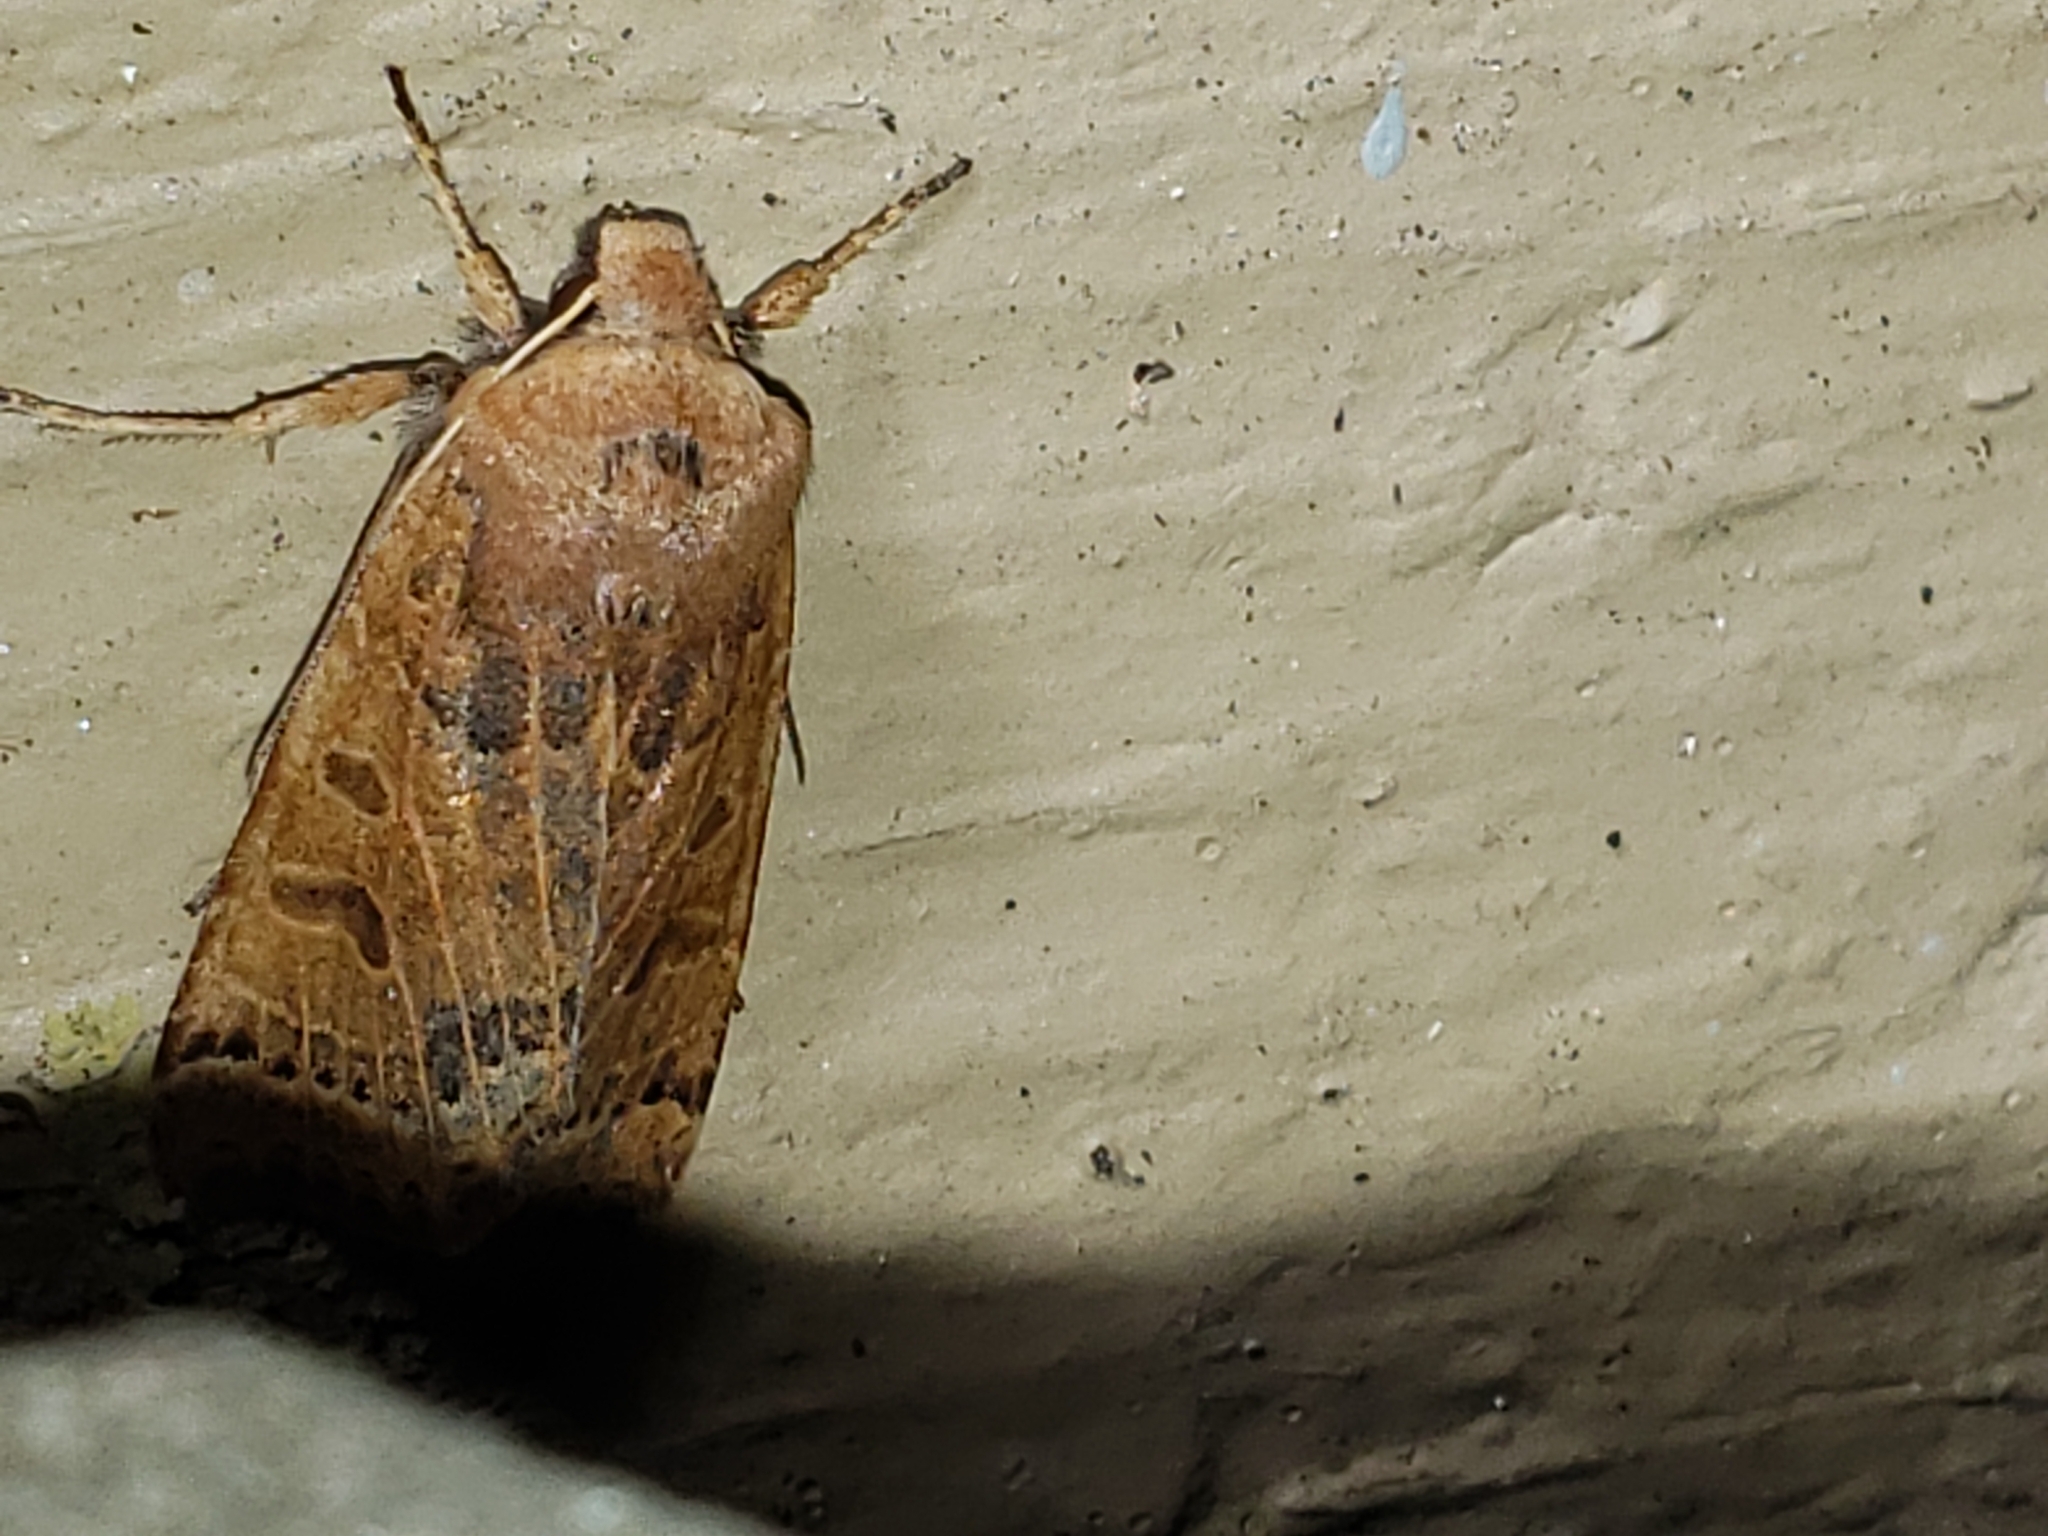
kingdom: Animalia
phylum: Arthropoda
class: Insecta
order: Lepidoptera
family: Noctuidae
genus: Agrochola
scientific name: Agrochola lunosa
